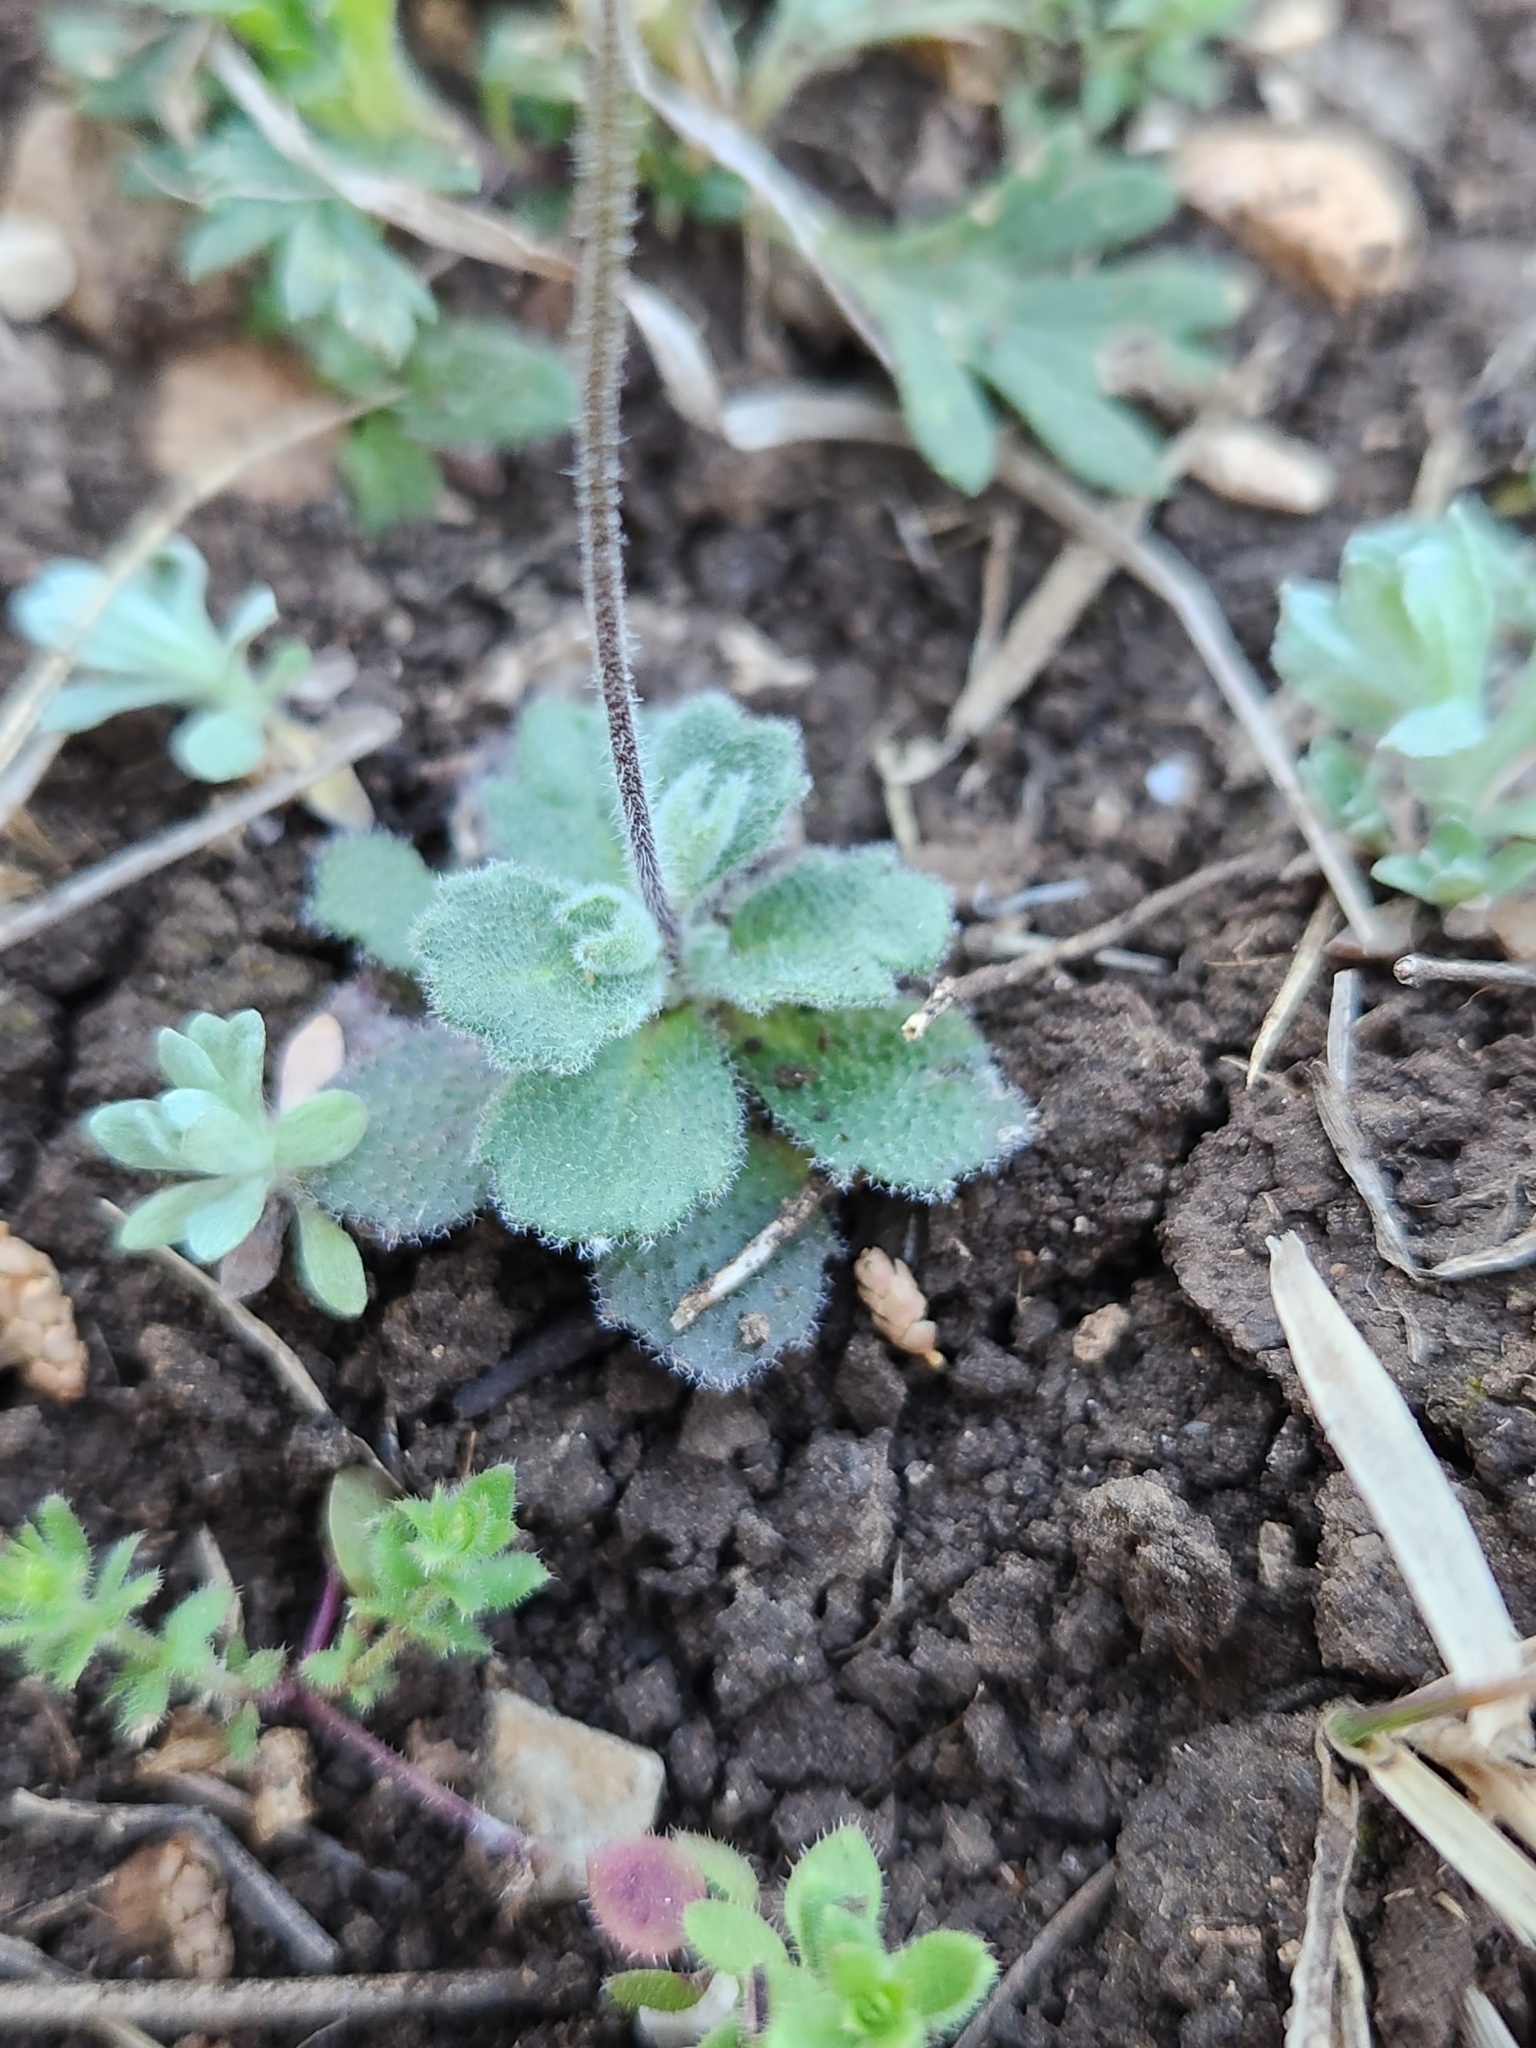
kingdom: Plantae
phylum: Tracheophyta
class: Magnoliopsida
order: Brassicales
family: Brassicaceae
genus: Tomostima
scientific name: Tomostima cuneifolia
